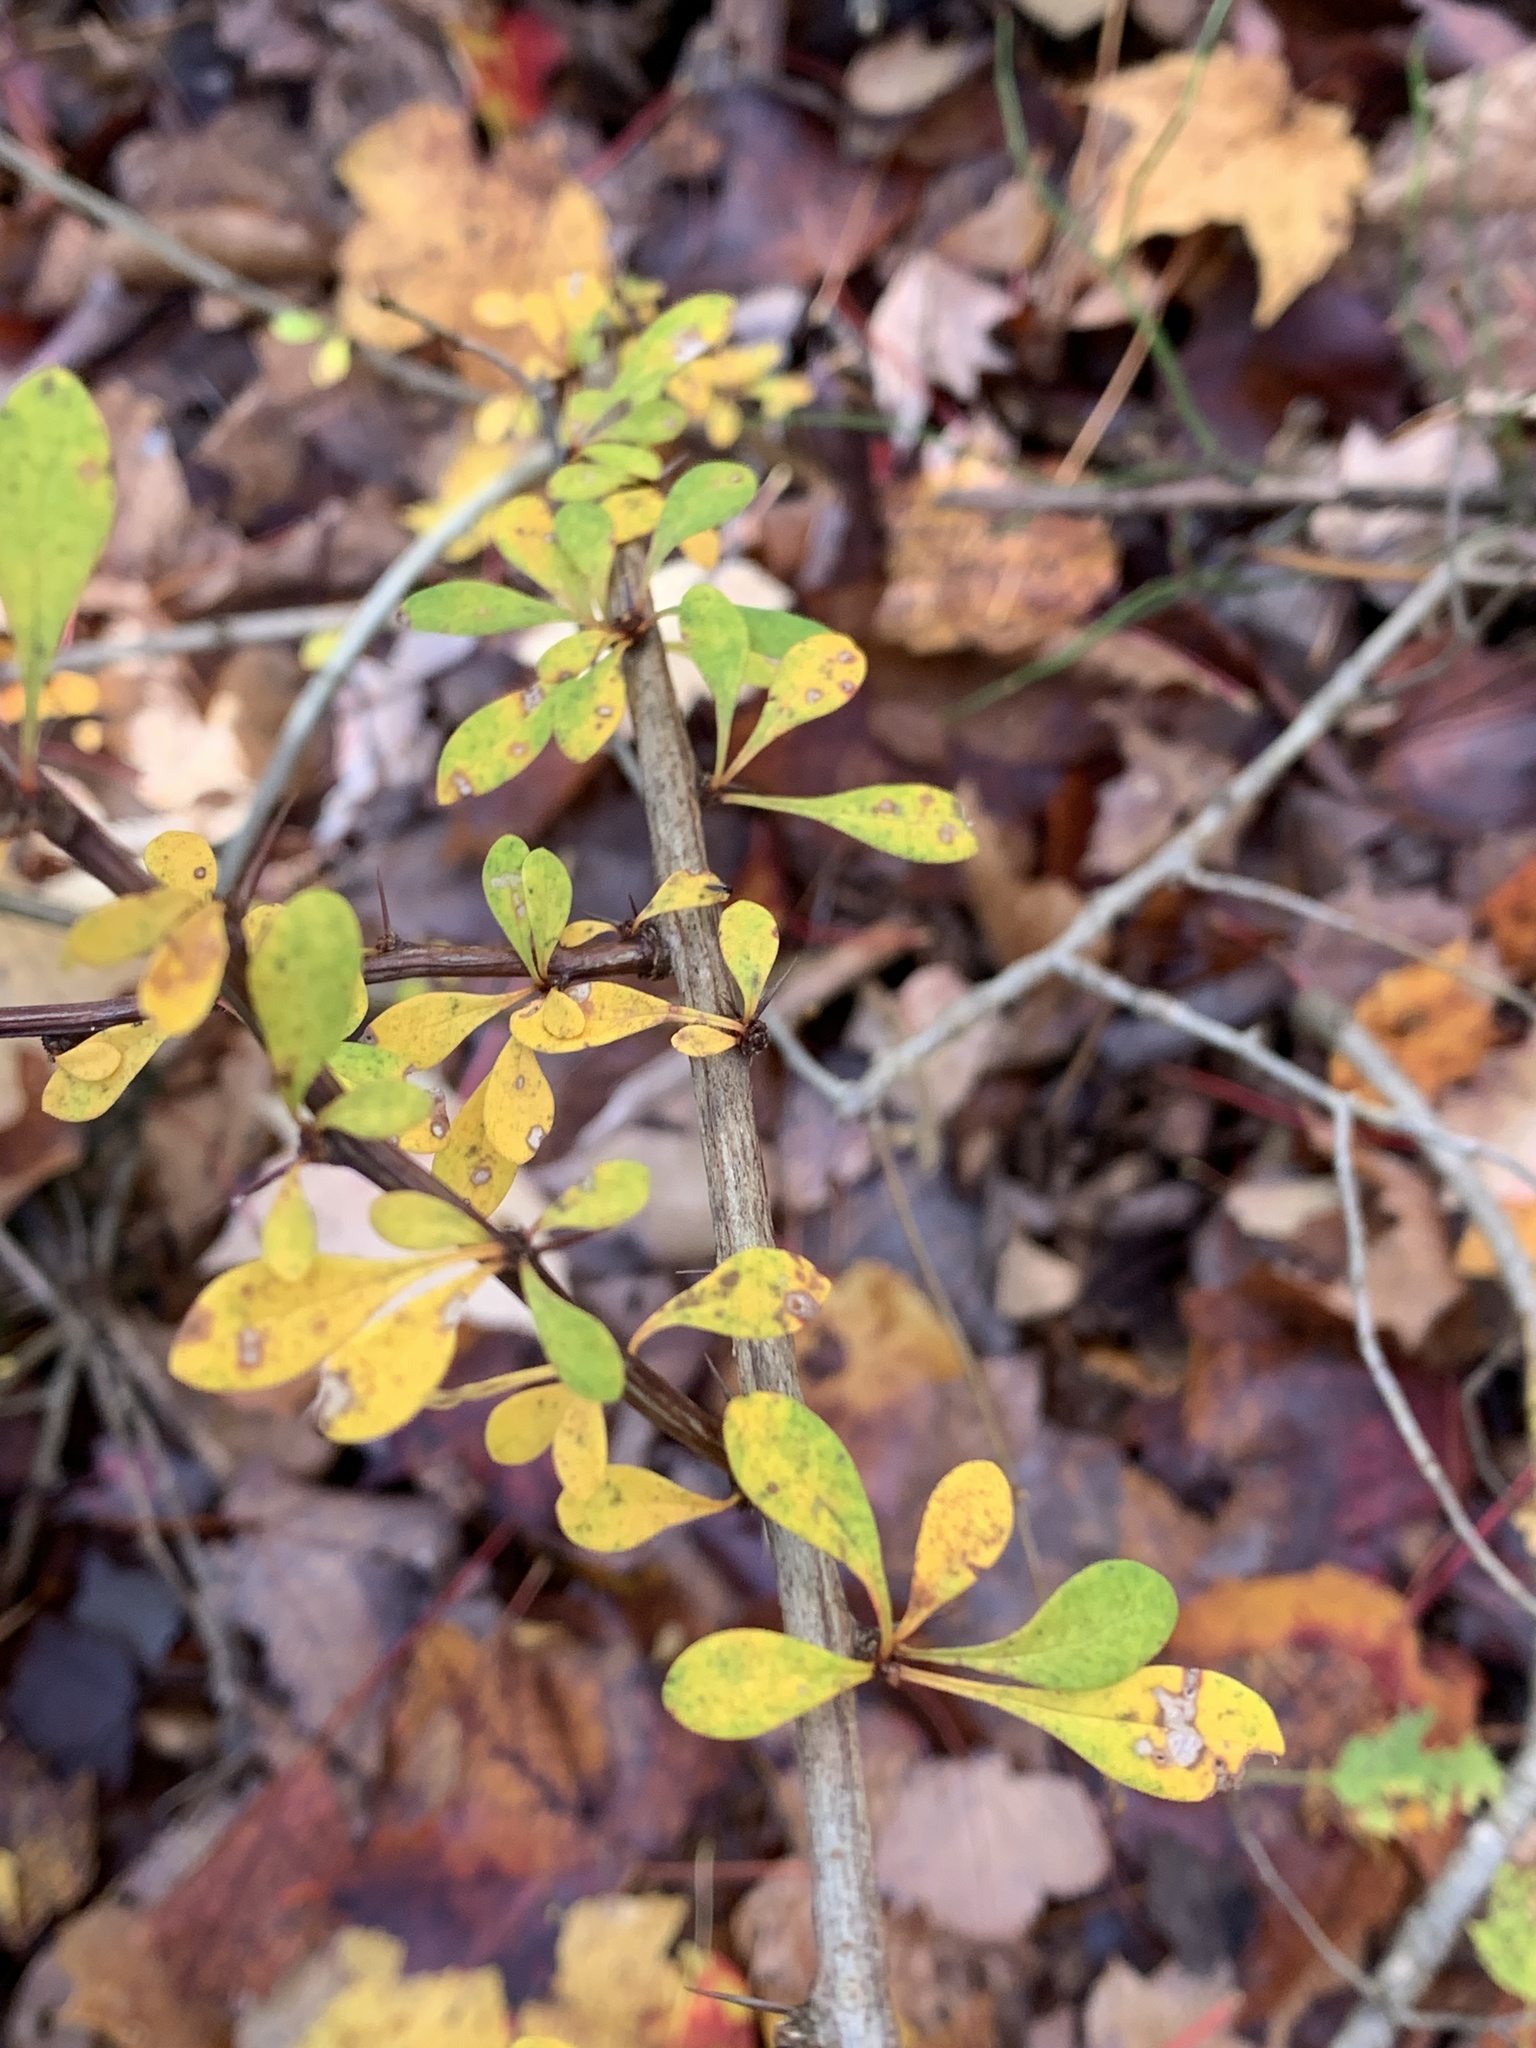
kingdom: Plantae
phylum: Tracheophyta
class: Magnoliopsida
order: Ranunculales
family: Berberidaceae
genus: Berberis
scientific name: Berberis thunbergii
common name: Japanese barberry
